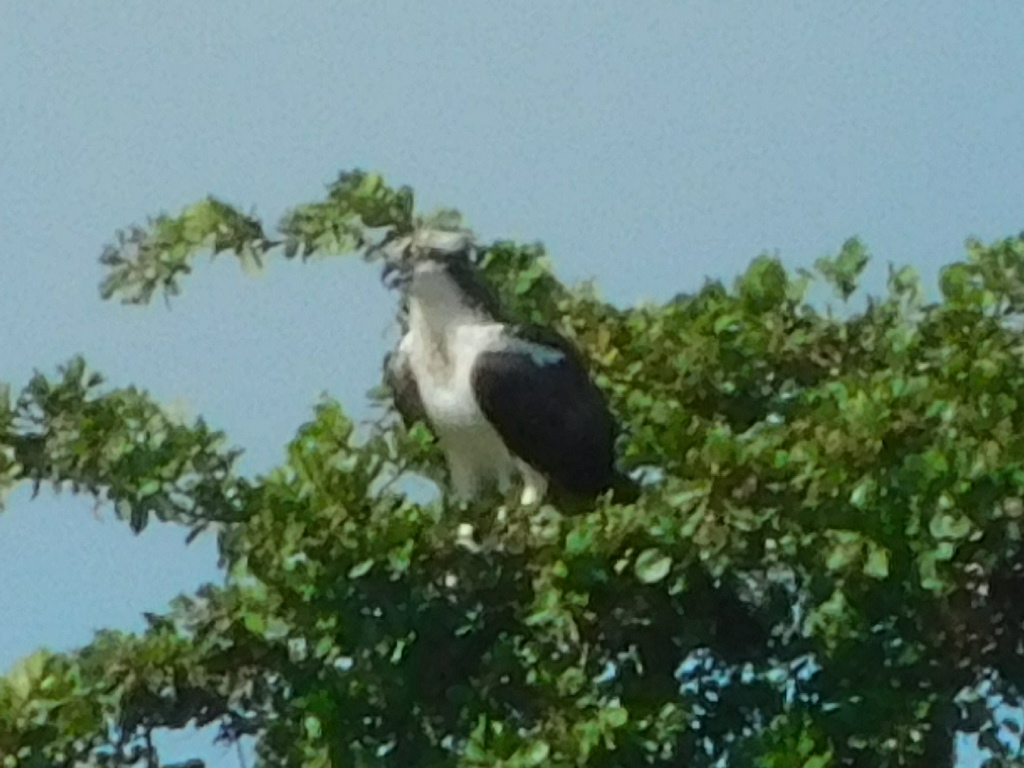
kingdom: Animalia
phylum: Chordata
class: Aves
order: Accipitriformes
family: Pandionidae
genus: Pandion
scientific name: Pandion haliaetus
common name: Osprey
